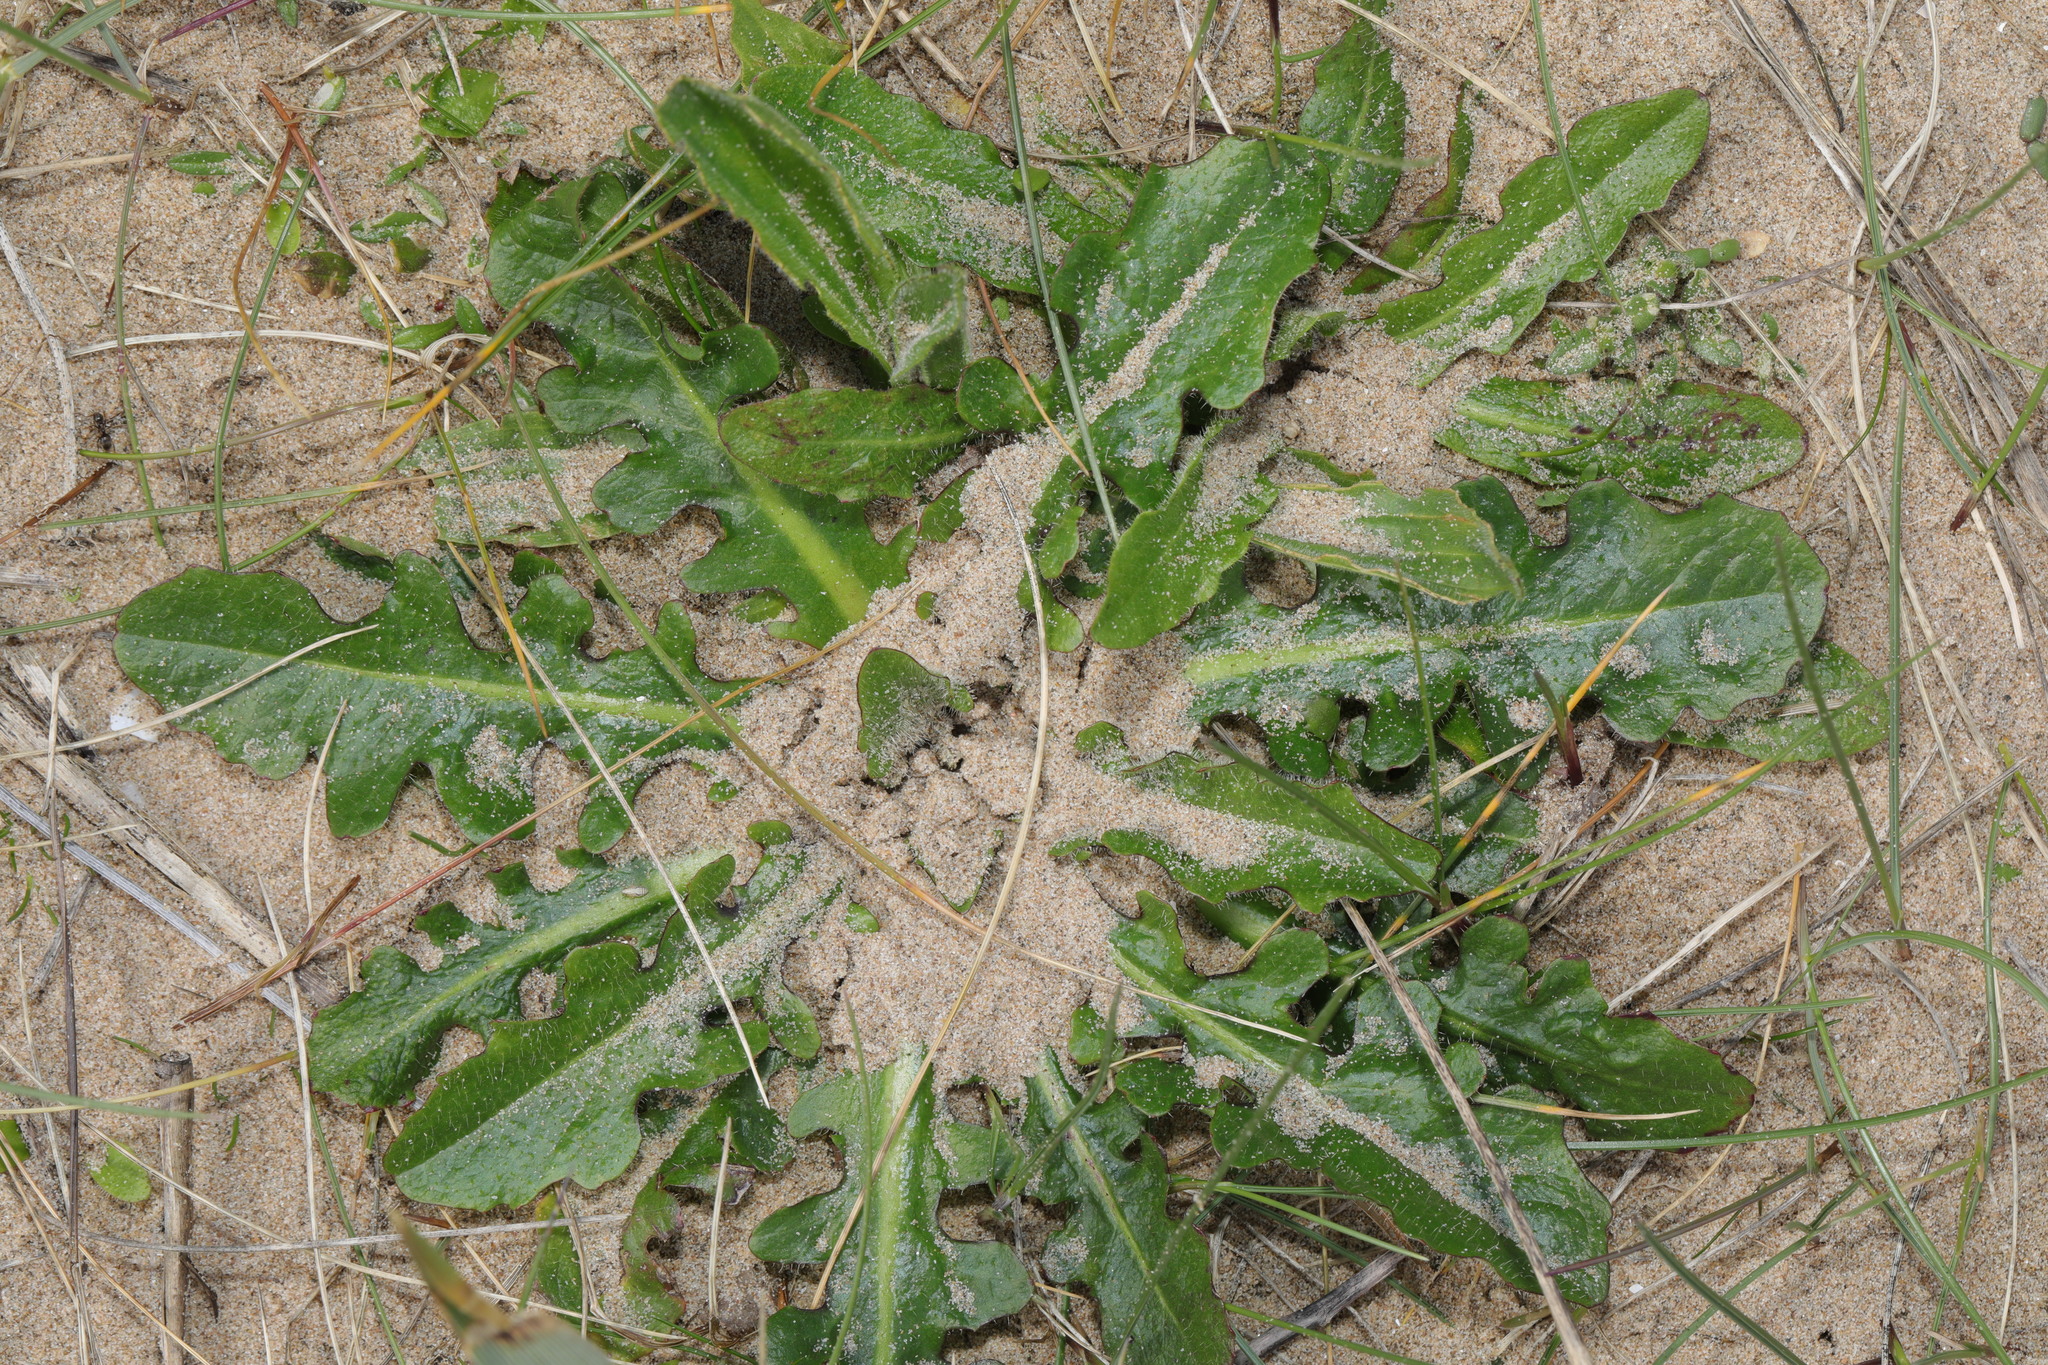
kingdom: Plantae
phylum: Tracheophyta
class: Magnoliopsida
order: Asterales
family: Asteraceae
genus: Hypochaeris
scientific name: Hypochaeris radicata
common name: Flatweed
